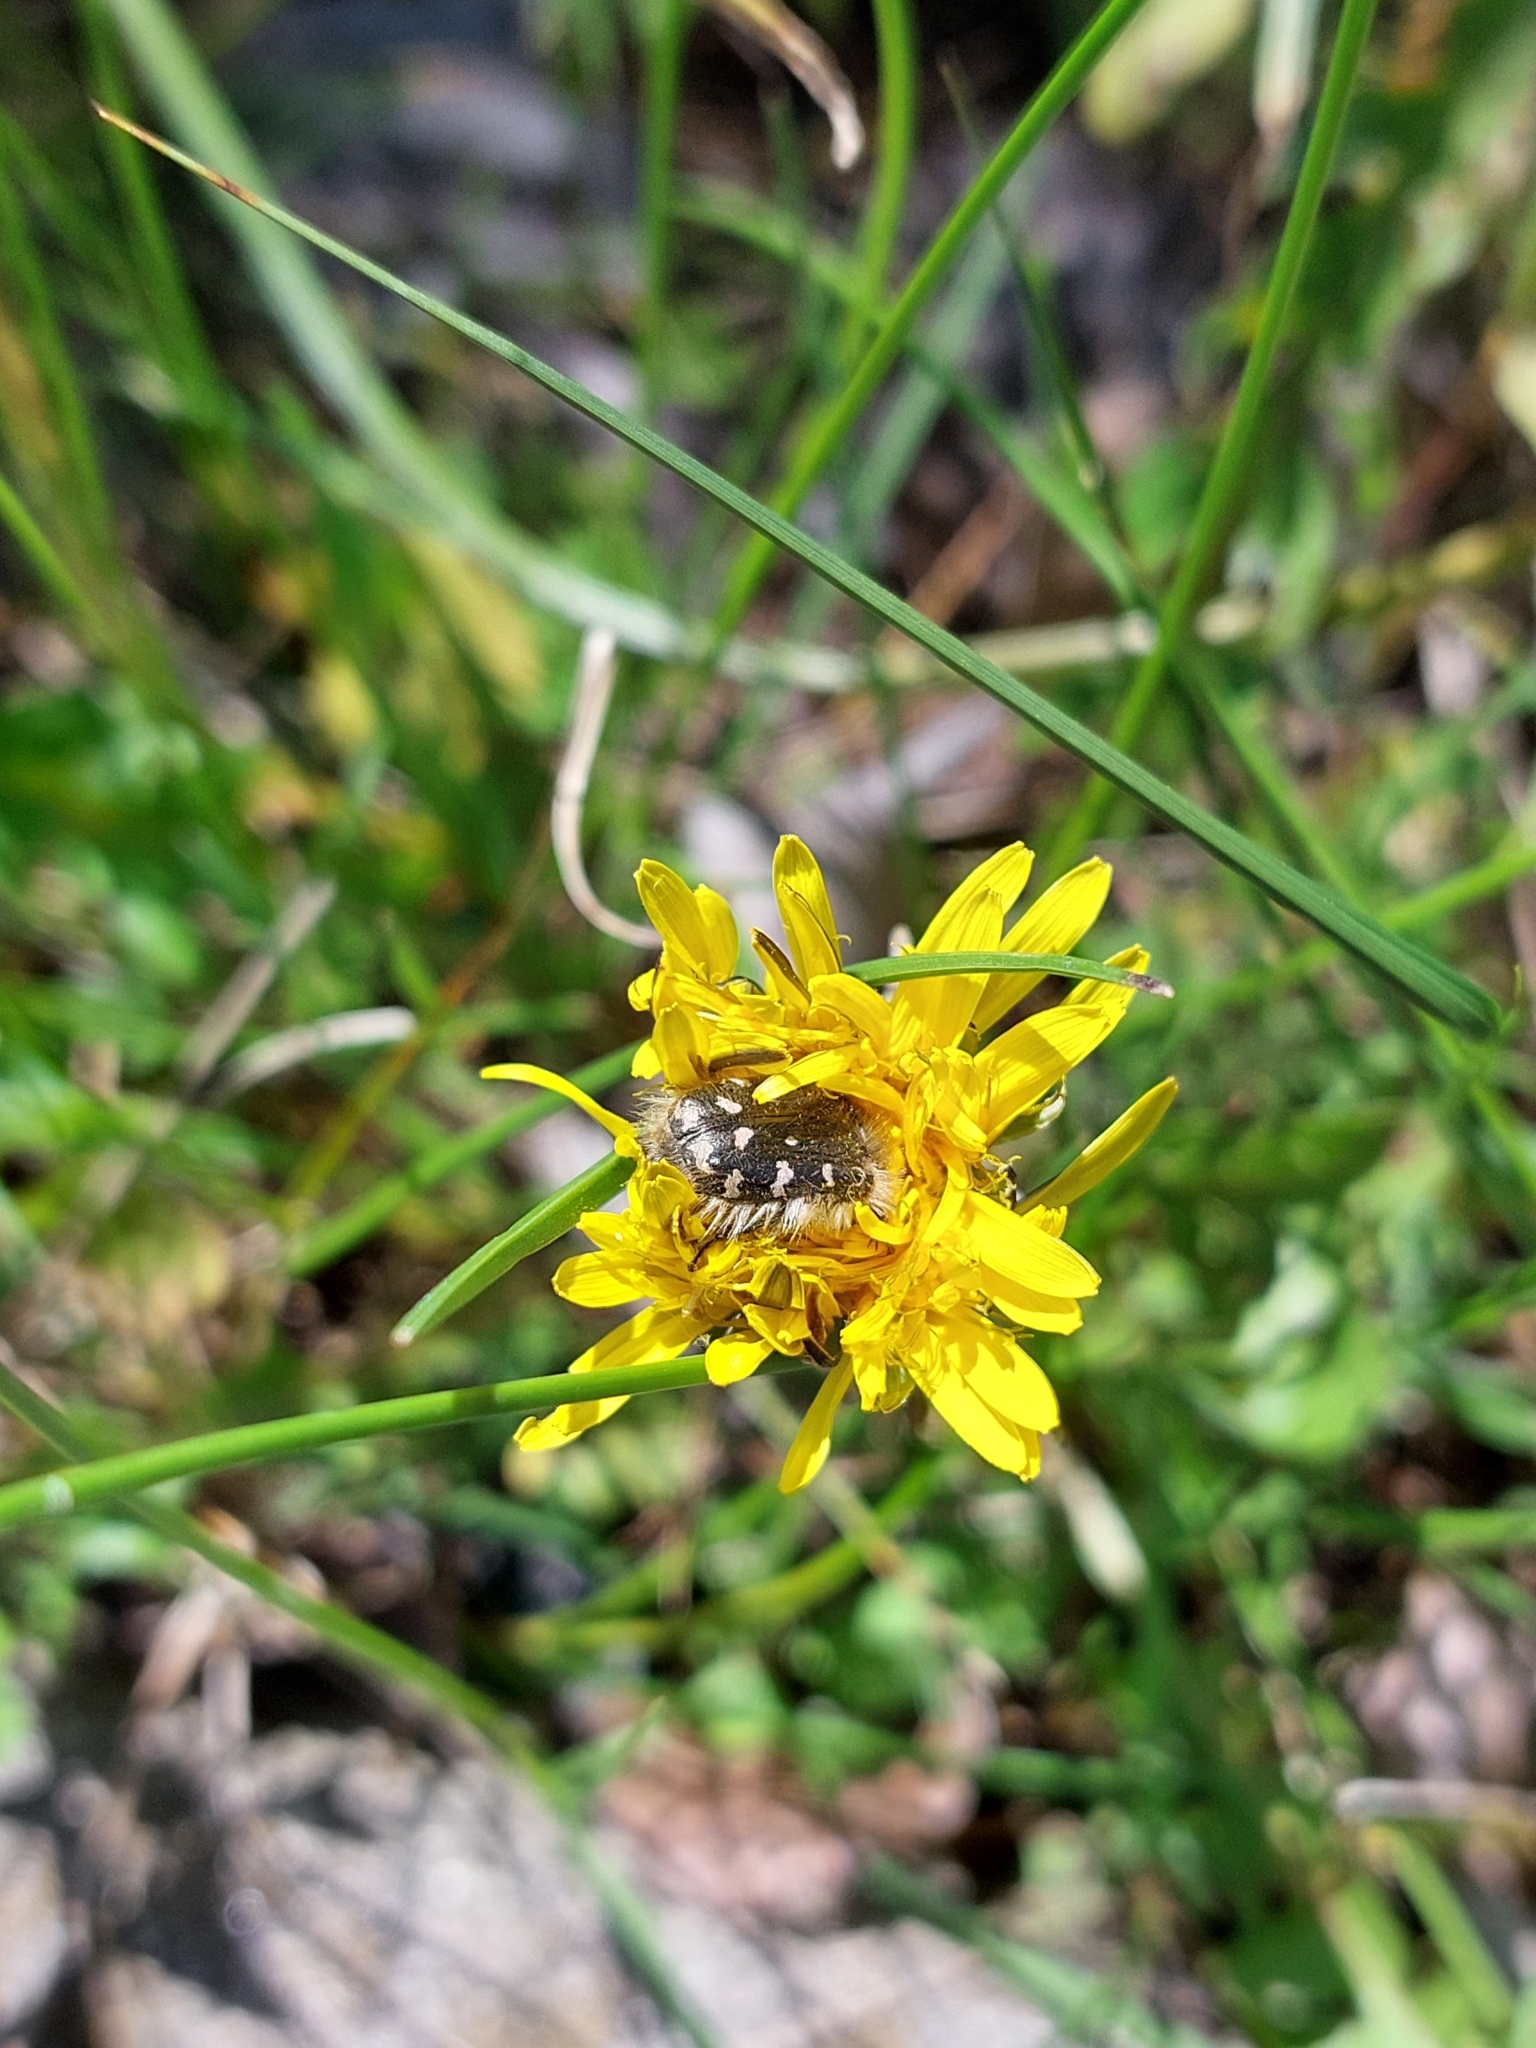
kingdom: Animalia
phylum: Arthropoda
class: Insecta
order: Coleoptera
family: Scarabaeidae
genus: Tropinota
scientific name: Tropinota hirta
